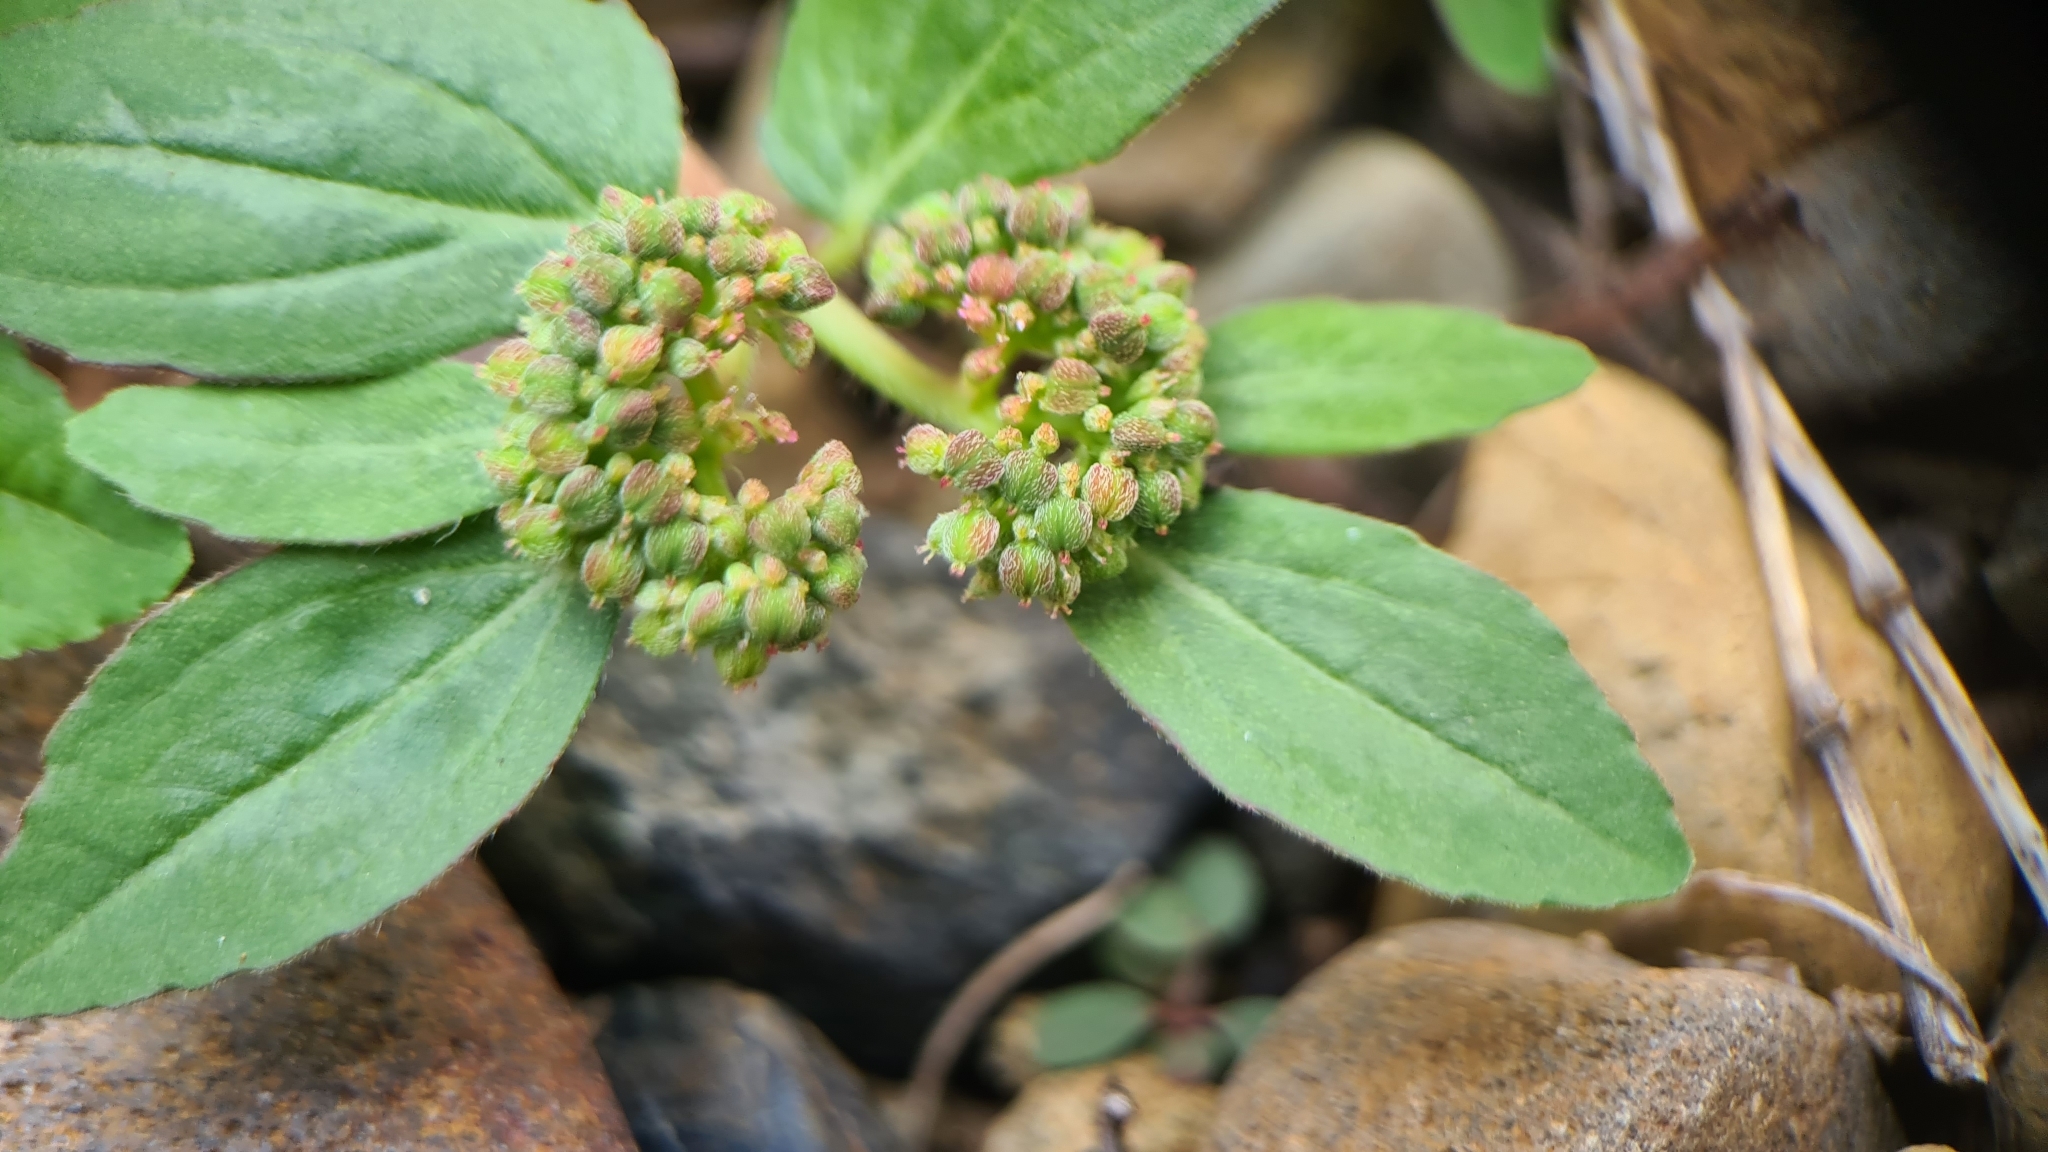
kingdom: Plantae
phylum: Tracheophyta
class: Magnoliopsida
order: Malpighiales
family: Euphorbiaceae
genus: Euphorbia
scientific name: Euphorbia ophthalmica
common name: Florida hammock sandmat
